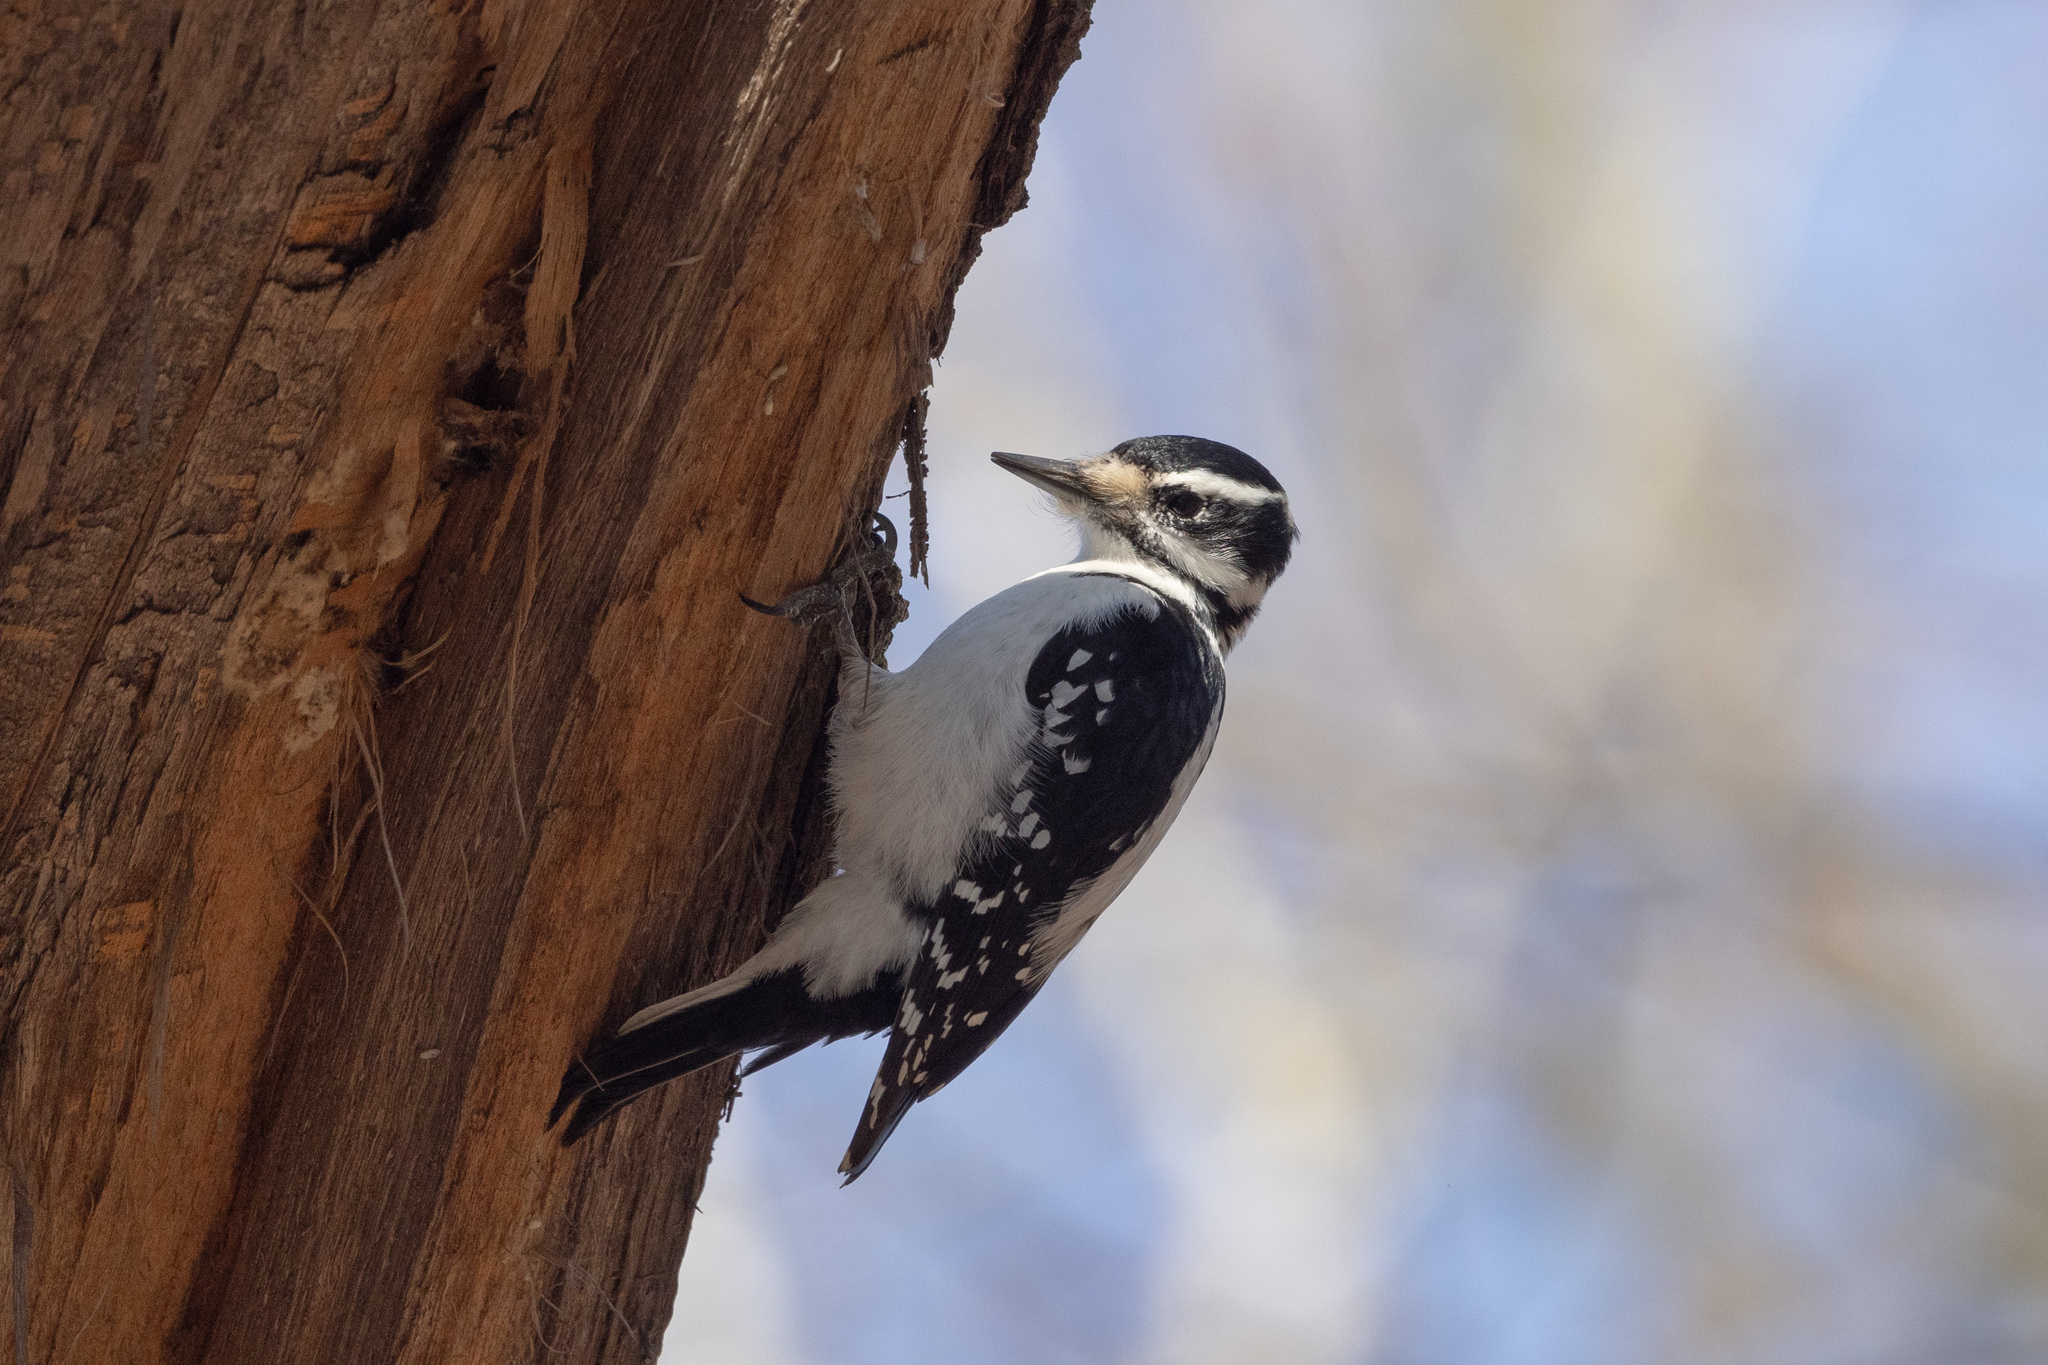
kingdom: Animalia
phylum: Chordata
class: Aves
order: Piciformes
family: Picidae
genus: Leuconotopicus
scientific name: Leuconotopicus villosus
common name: Hairy woodpecker
